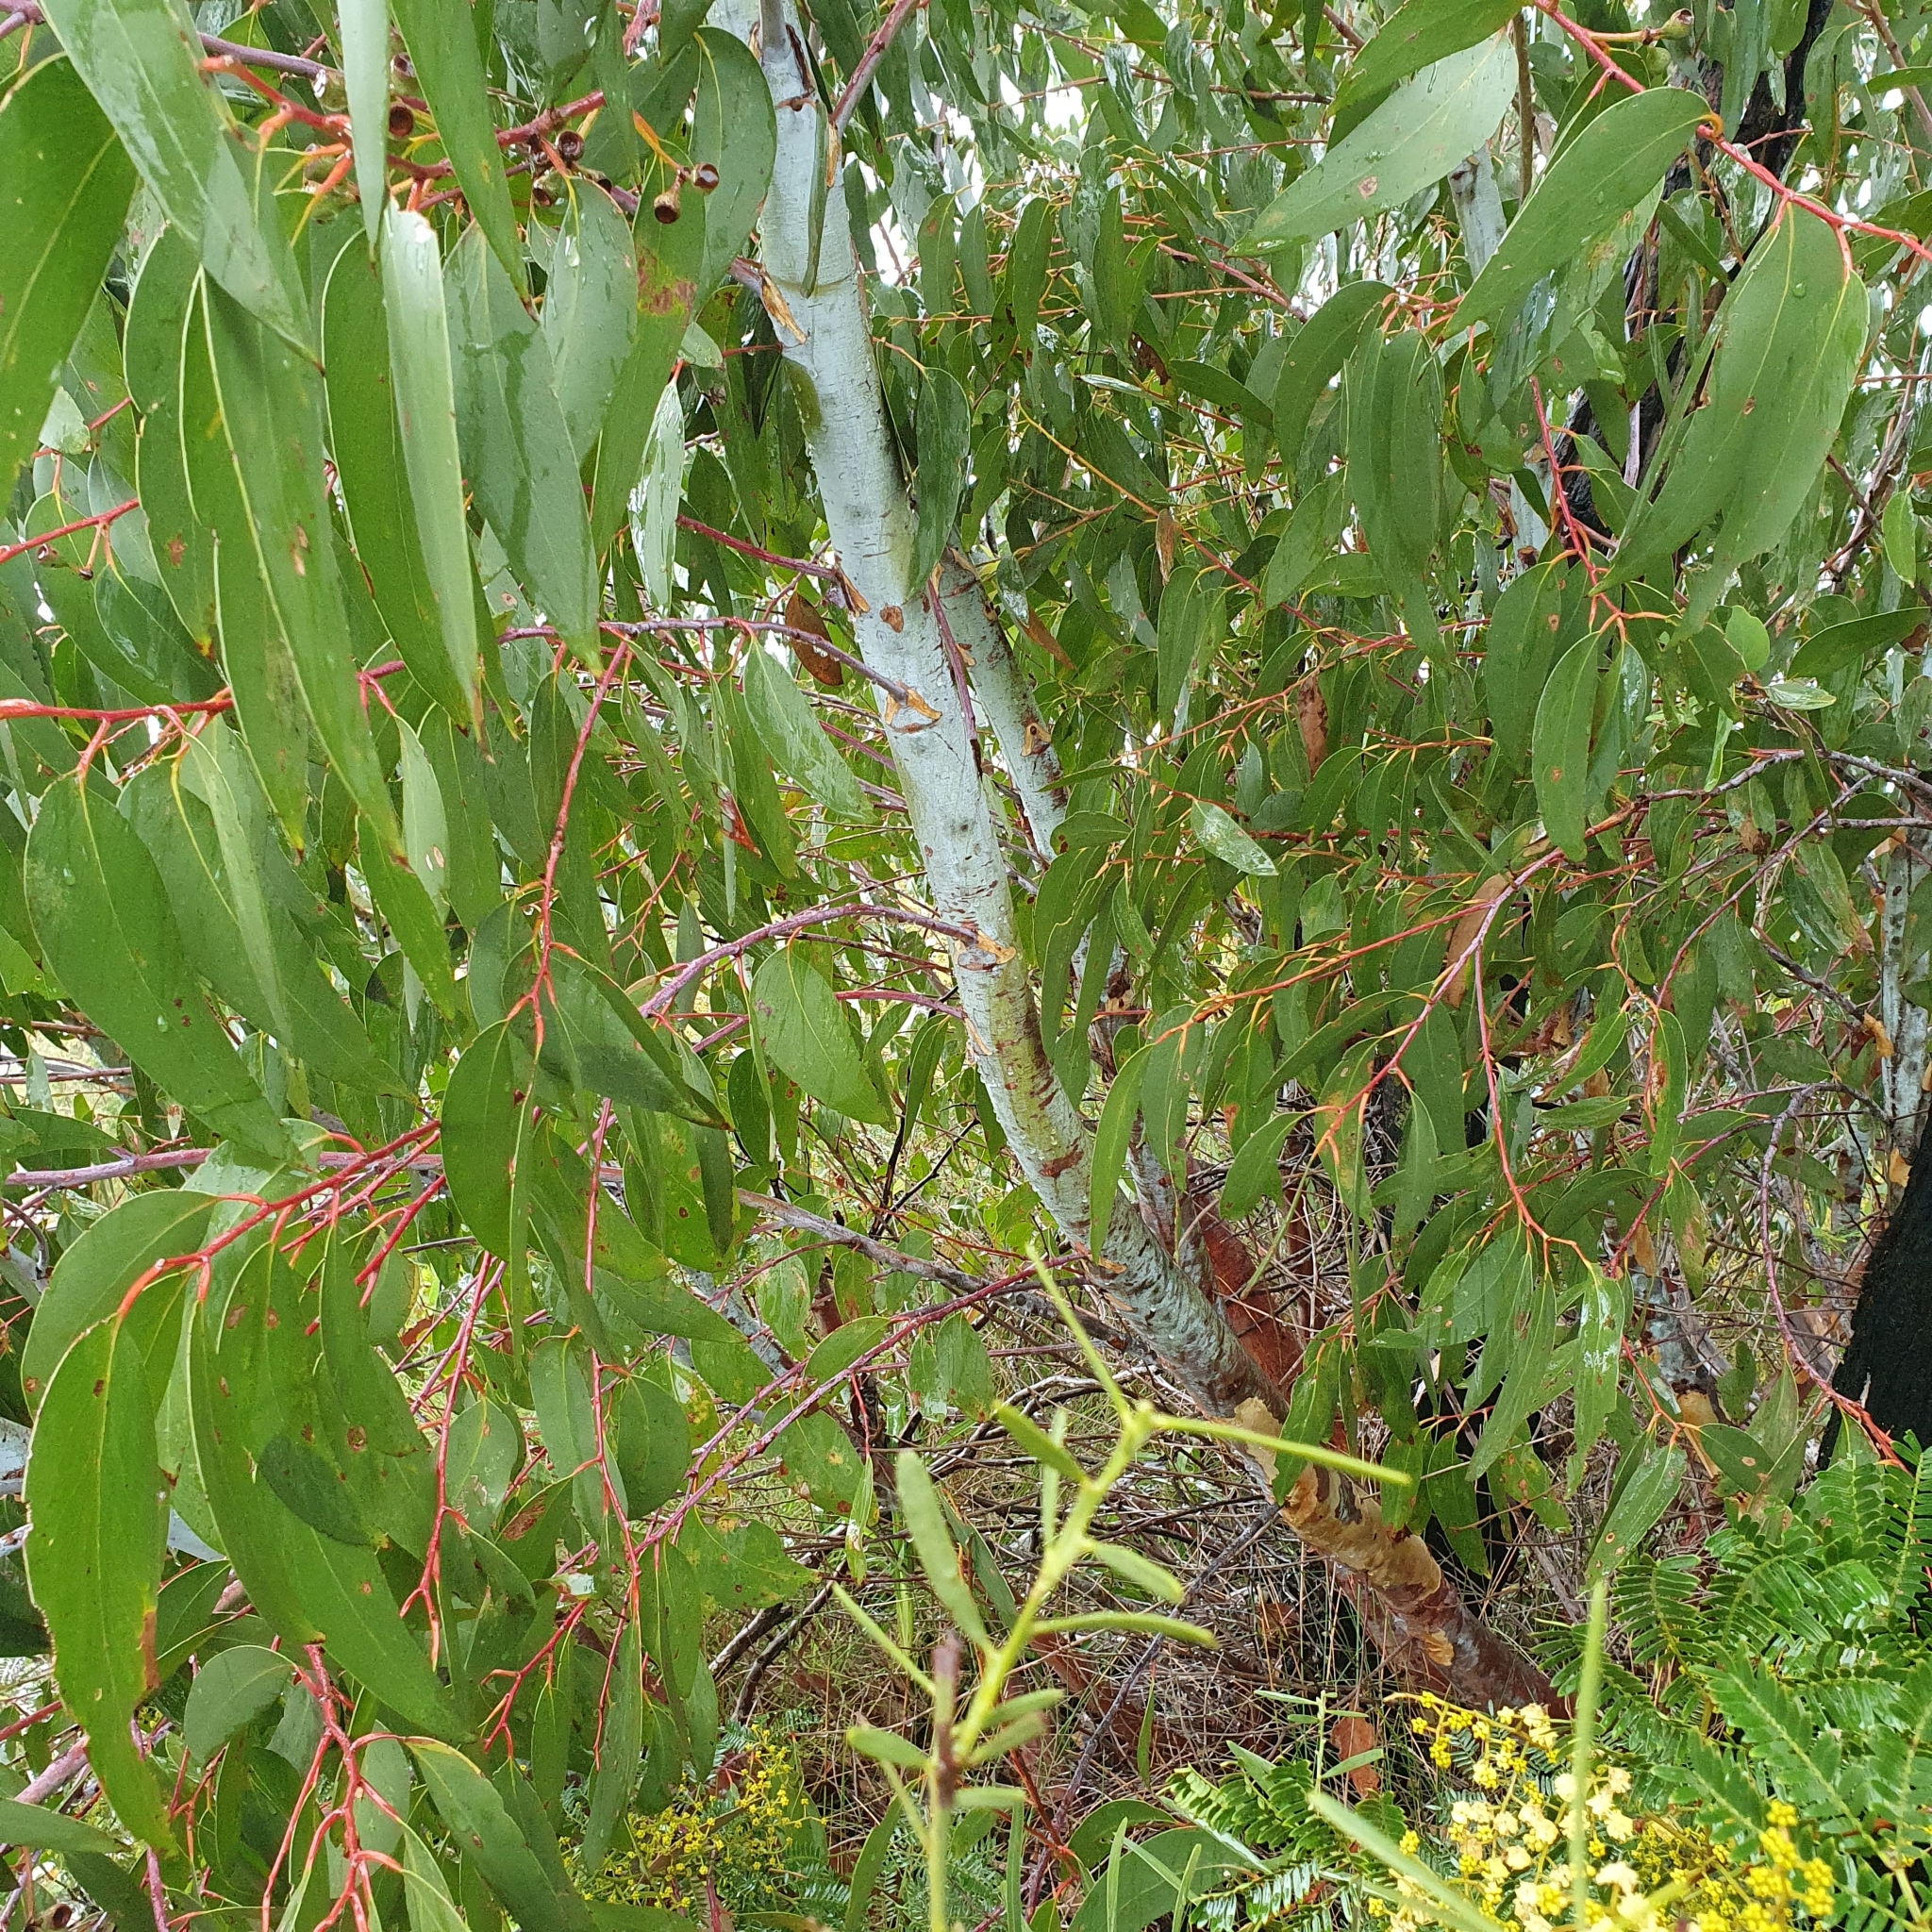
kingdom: Plantae
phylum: Tracheophyta
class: Magnoliopsida
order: Myrtales
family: Myrtaceae
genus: Eucalyptus
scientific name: Eucalyptus sieberi
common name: Black-ash
